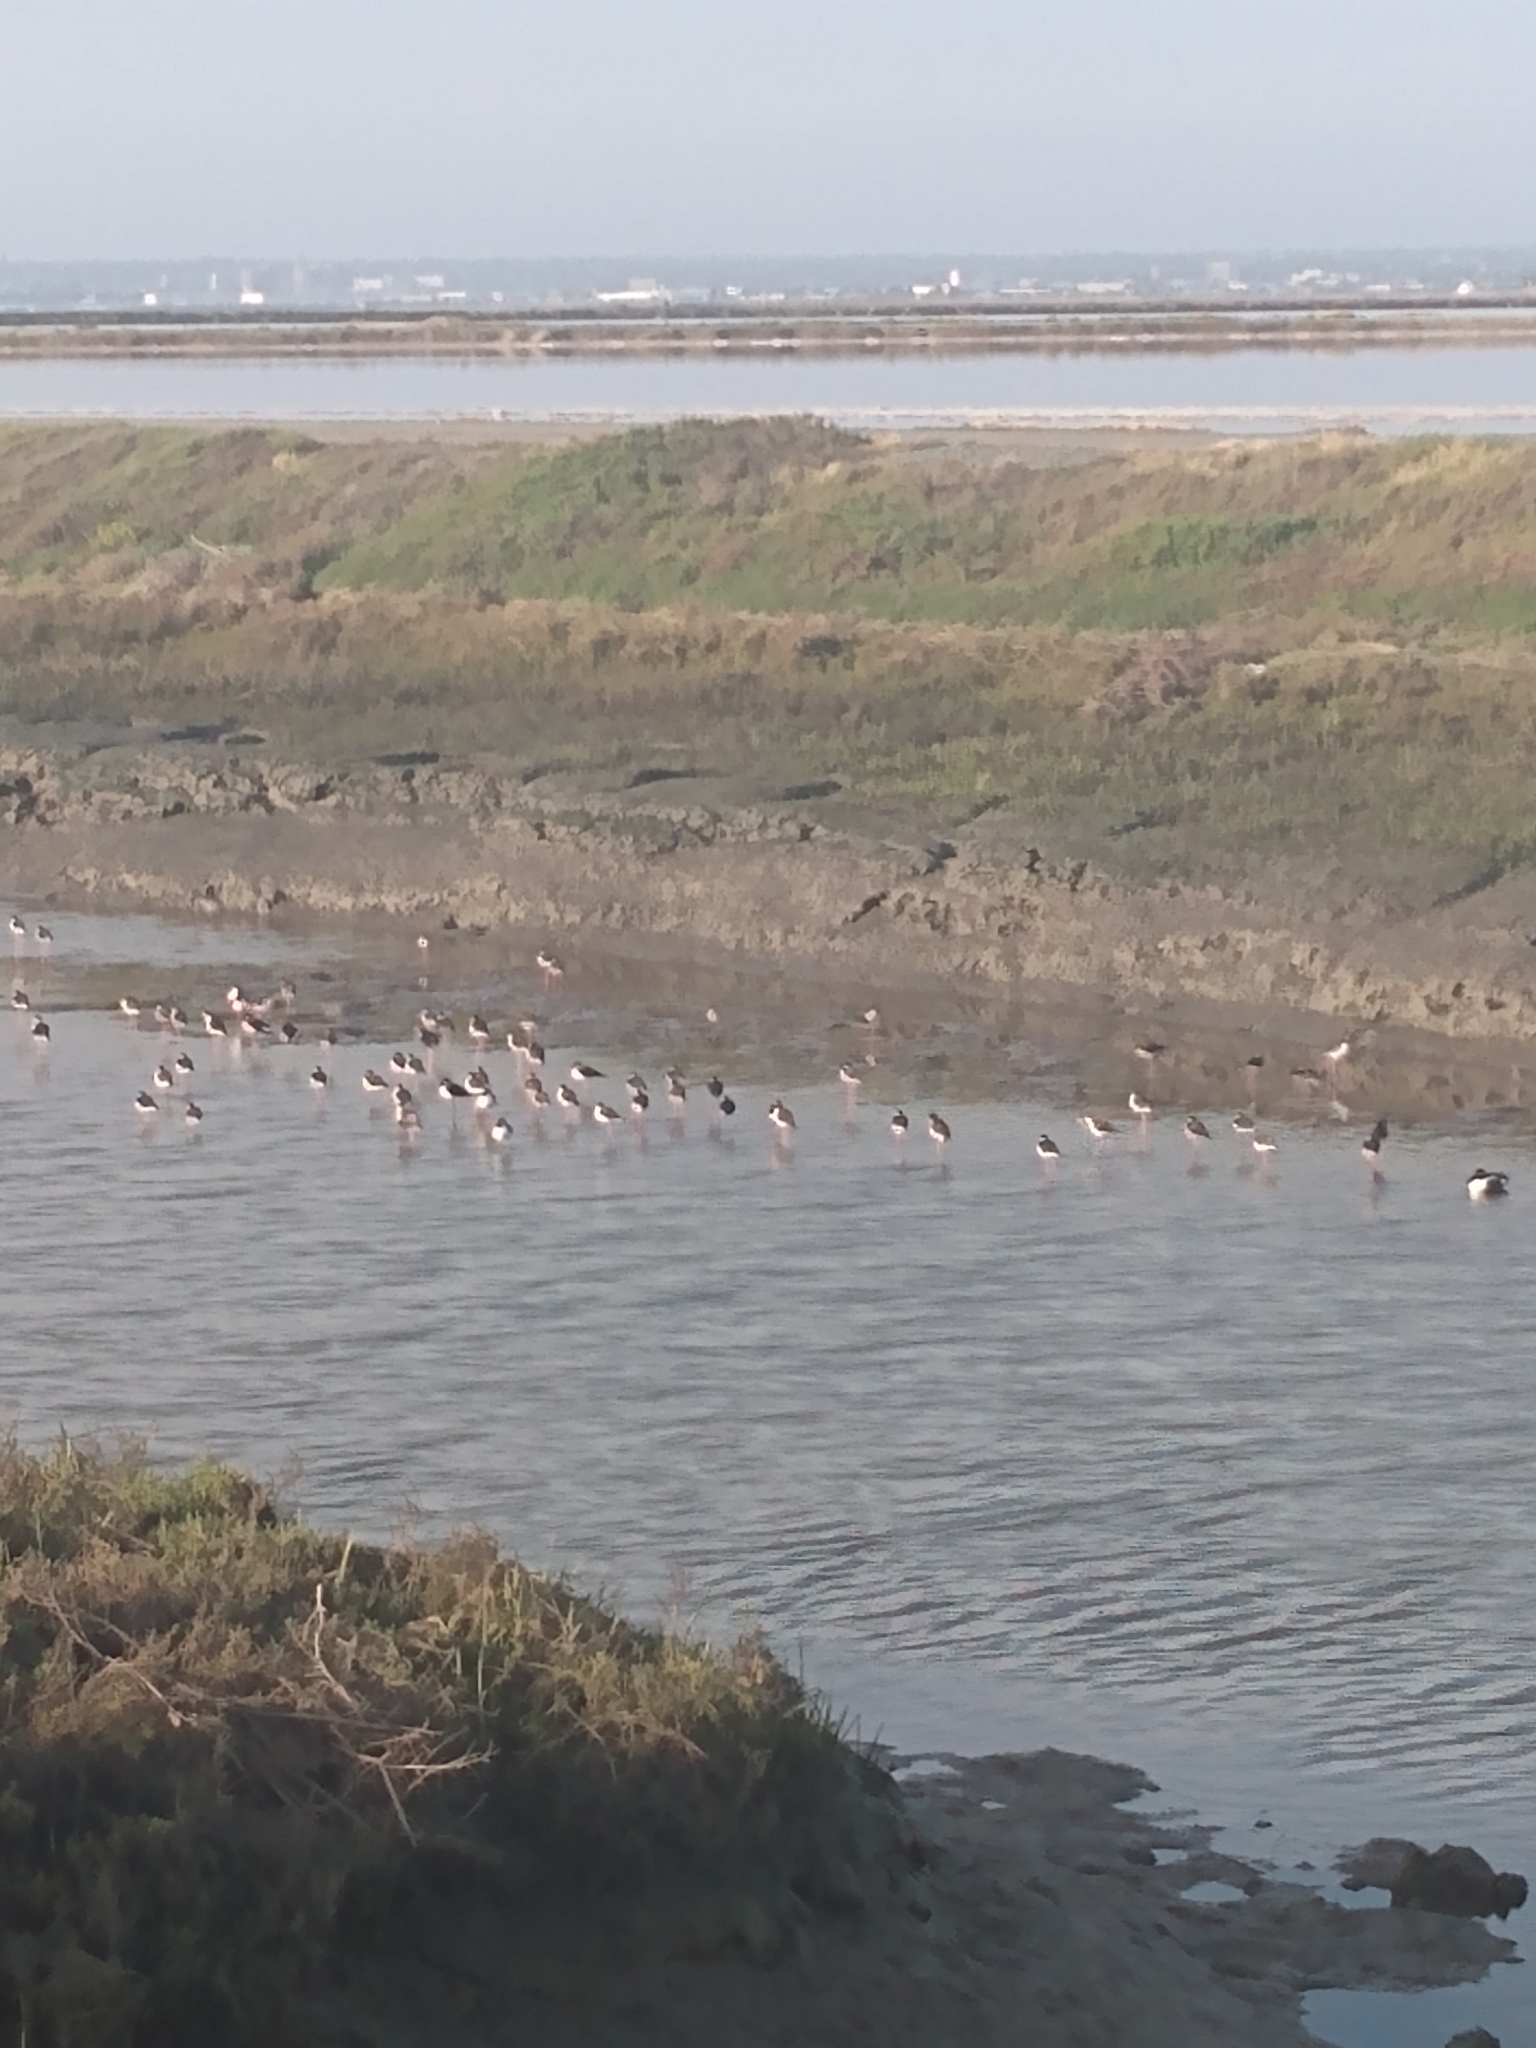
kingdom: Animalia
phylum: Chordata
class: Aves
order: Charadriiformes
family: Recurvirostridae
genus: Himantopus
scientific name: Himantopus mexicanus
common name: Black-necked stilt
